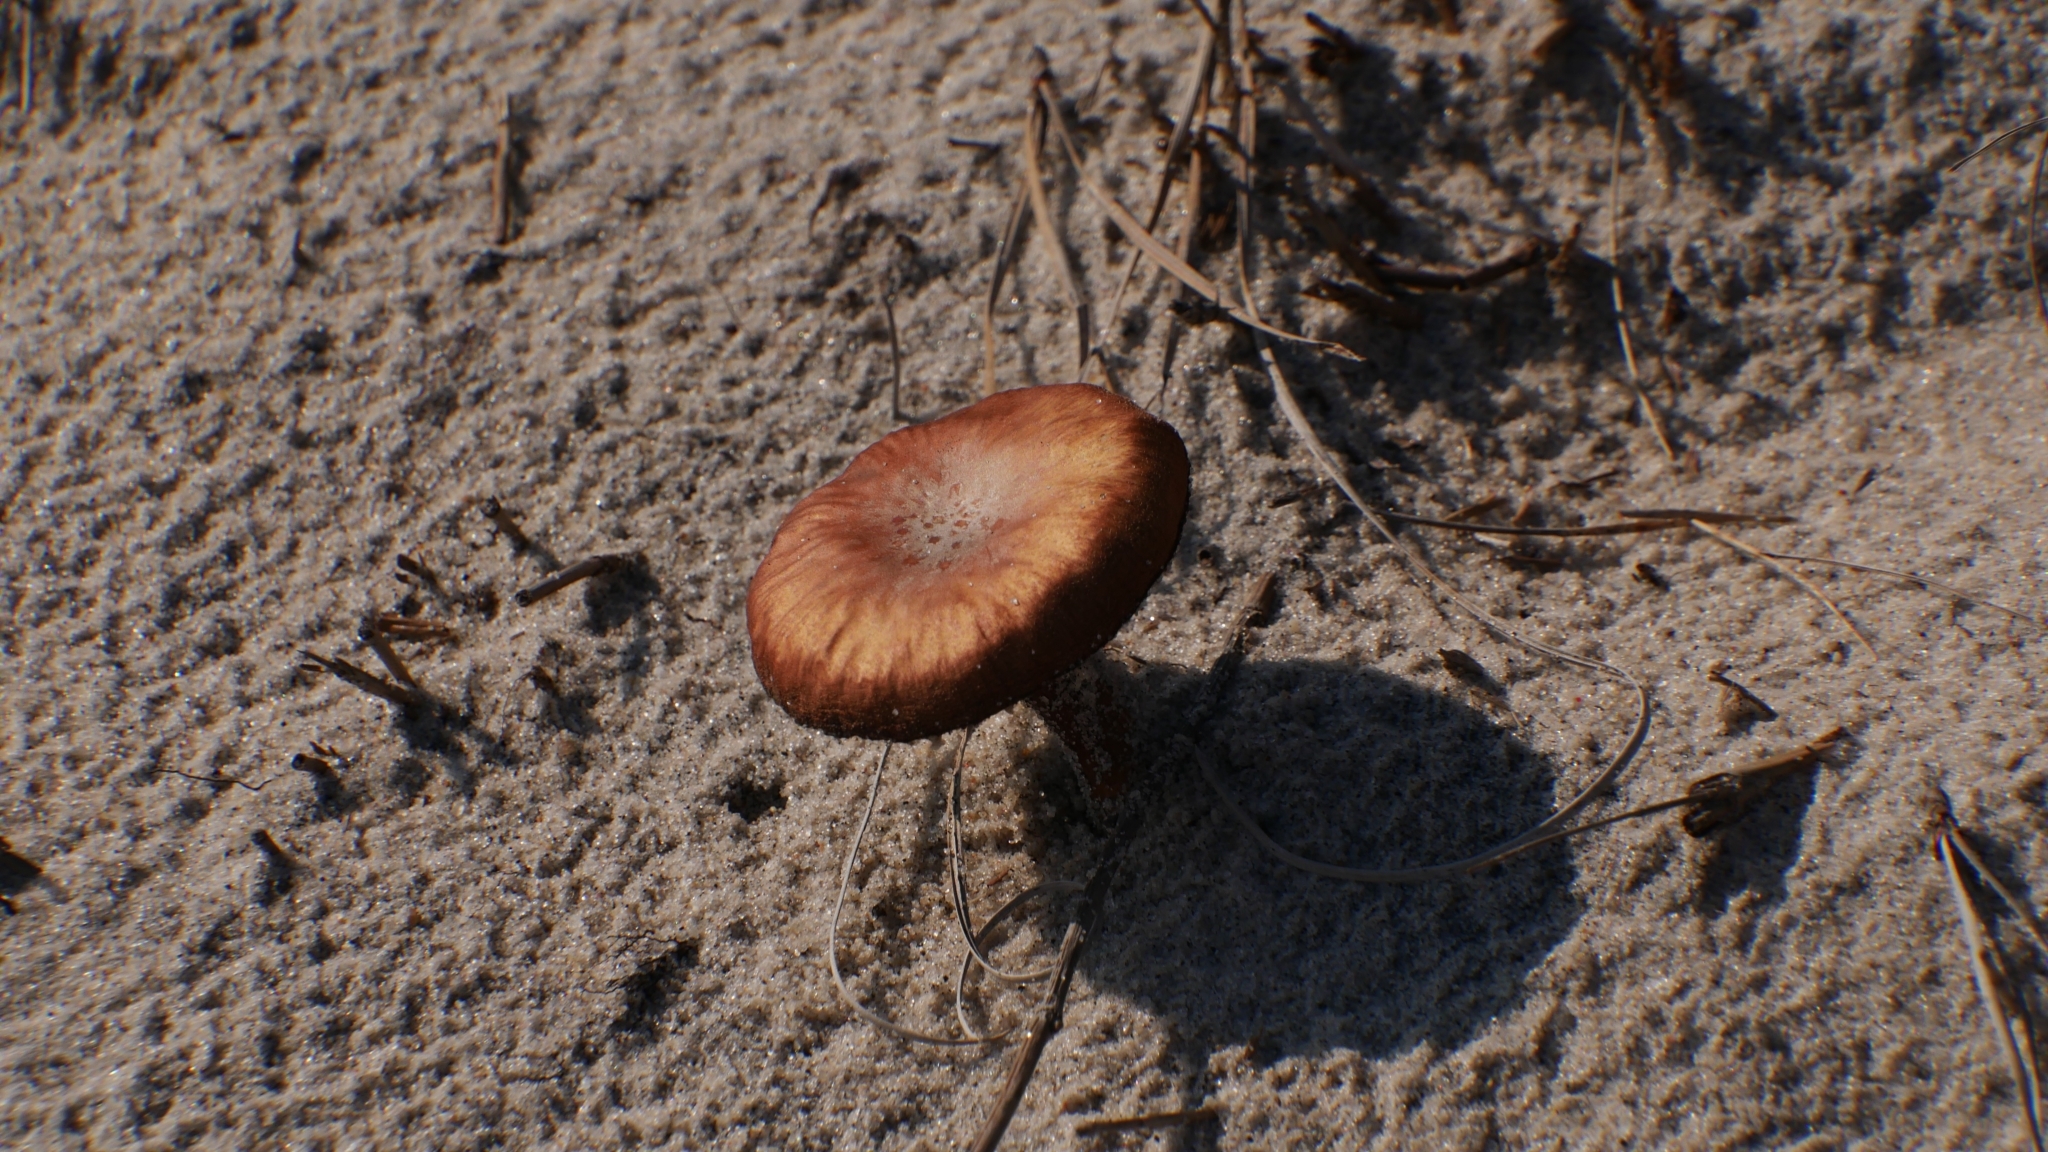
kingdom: Fungi
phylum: Basidiomycota
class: Agaricomycetes
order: Agaricales
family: Hydnangiaceae
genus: Laccaria
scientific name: Laccaria trullissata
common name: Sandy laccaria
